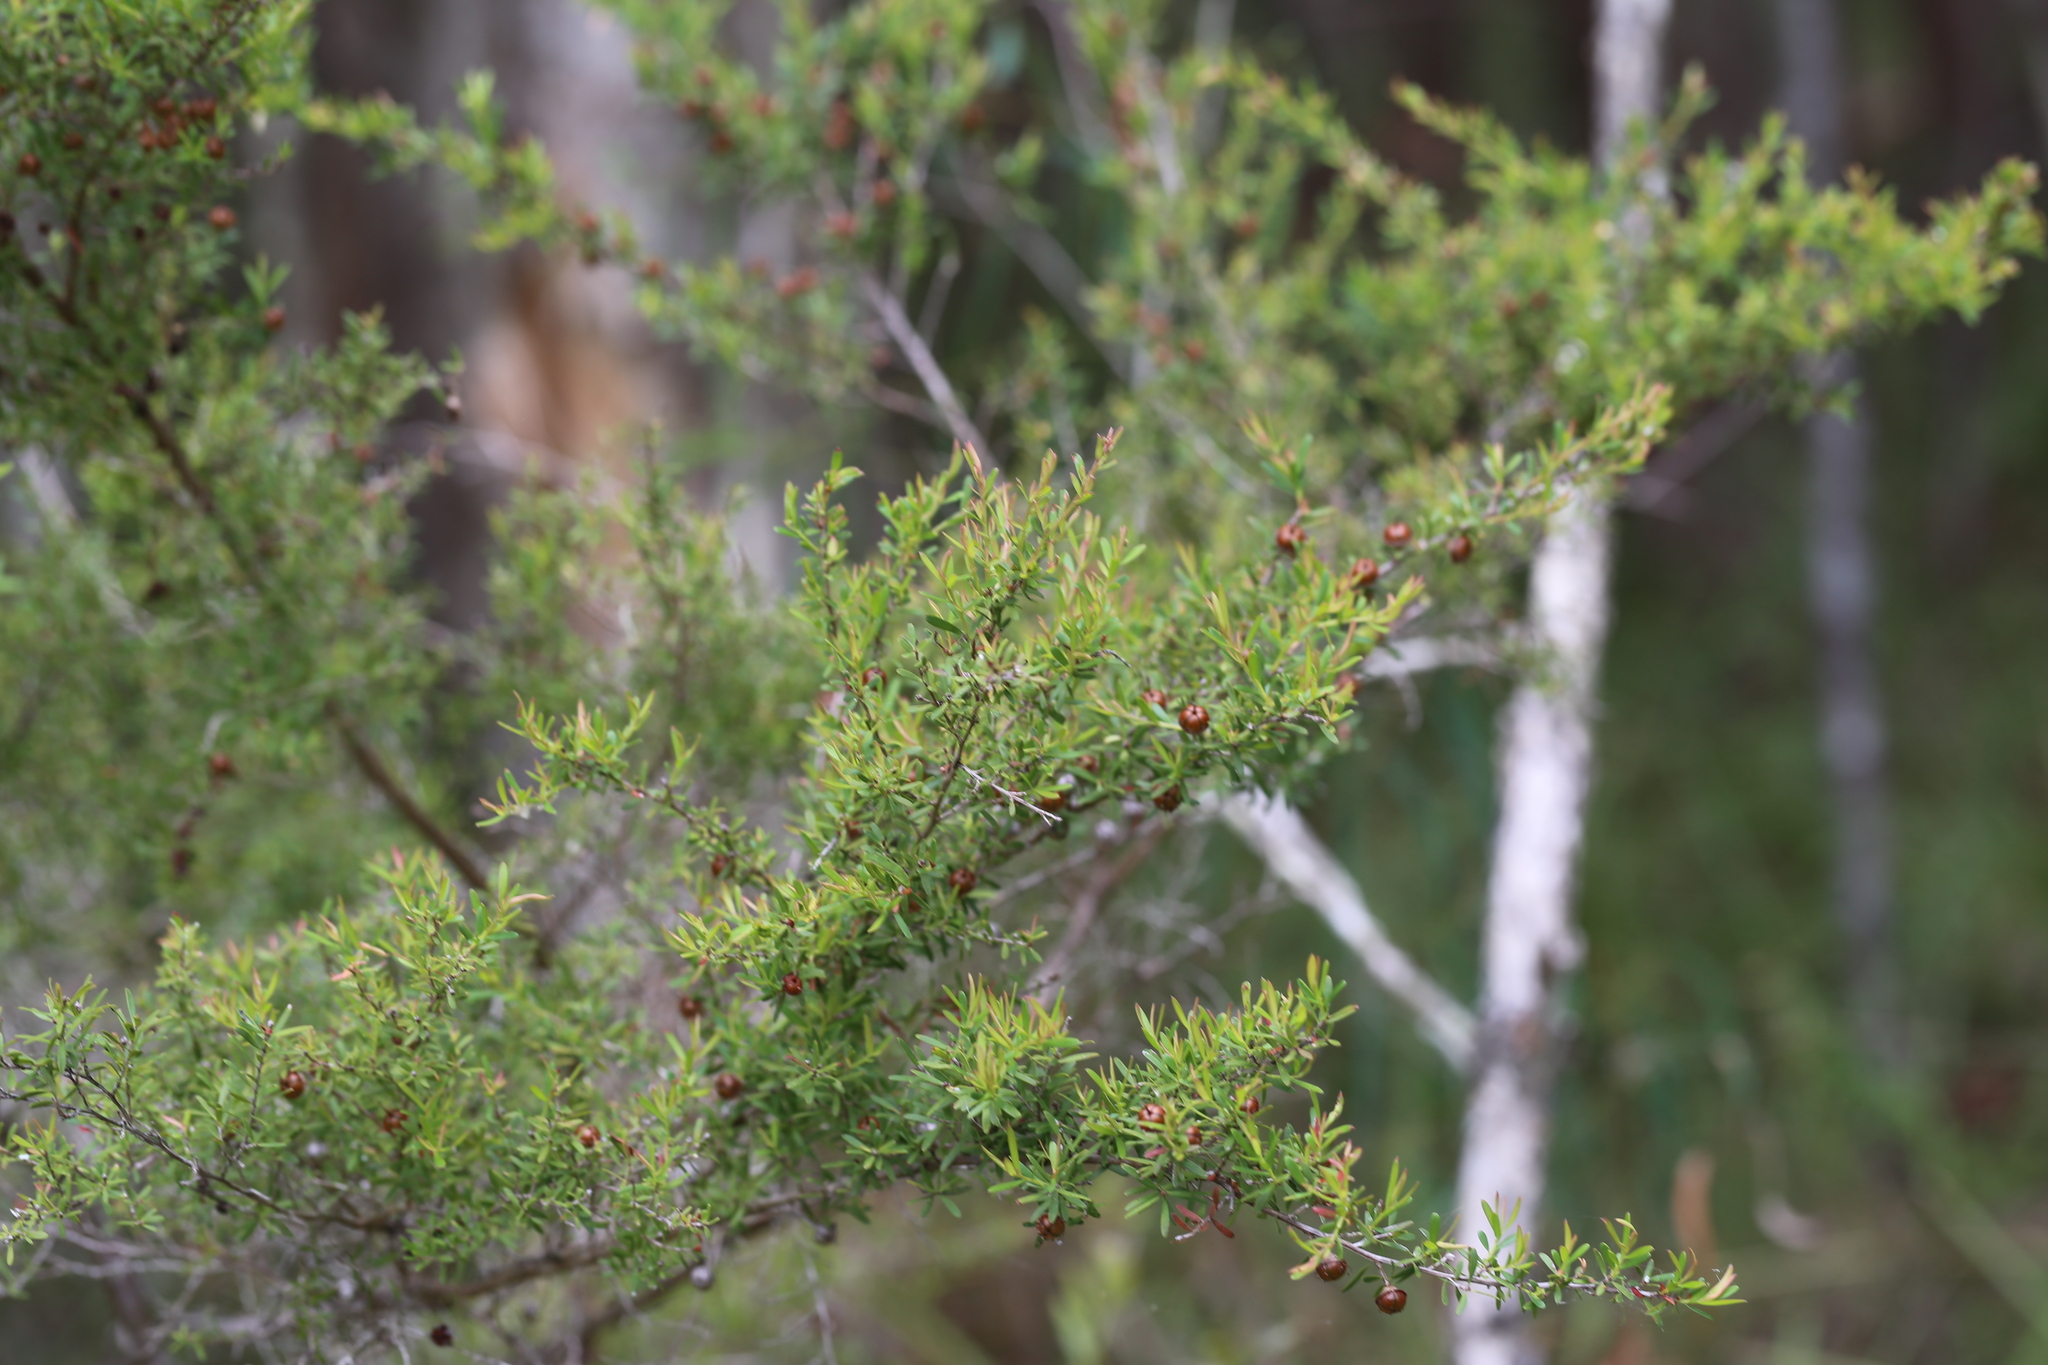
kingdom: Plantae
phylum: Tracheophyta
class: Magnoliopsida
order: Myrtales
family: Myrtaceae
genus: Leptospermum
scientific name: Leptospermum polygalifolium
